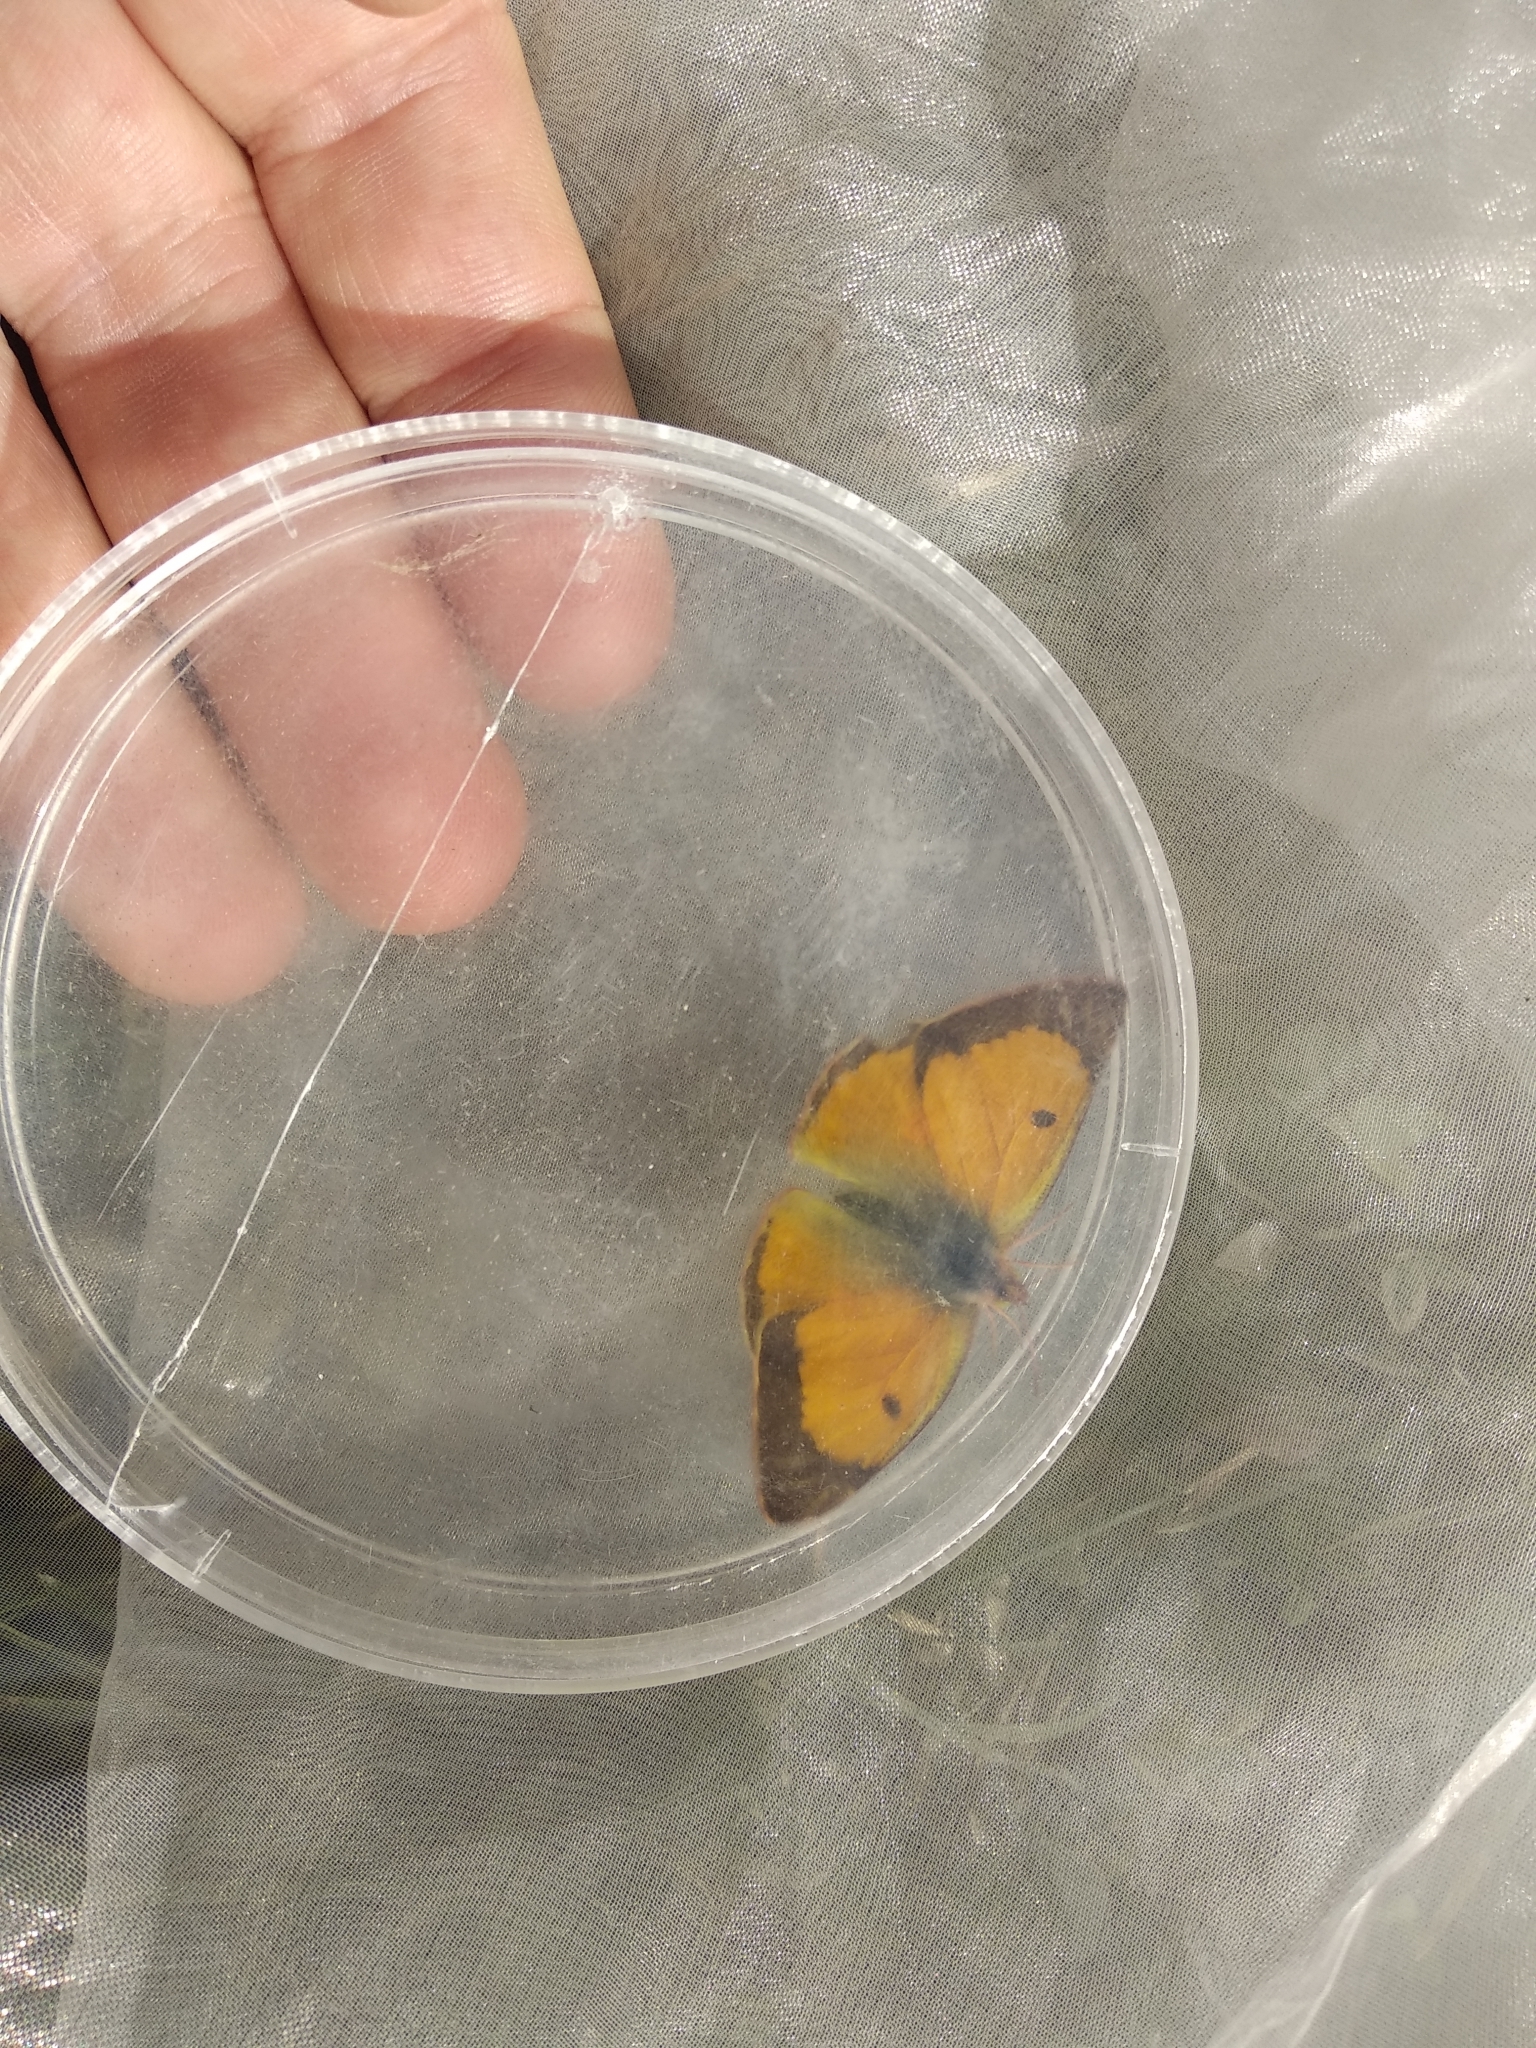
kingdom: Animalia
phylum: Arthropoda
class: Insecta
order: Lepidoptera
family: Pieridae
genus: Colias
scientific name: Colias croceus
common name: Clouded yellow
